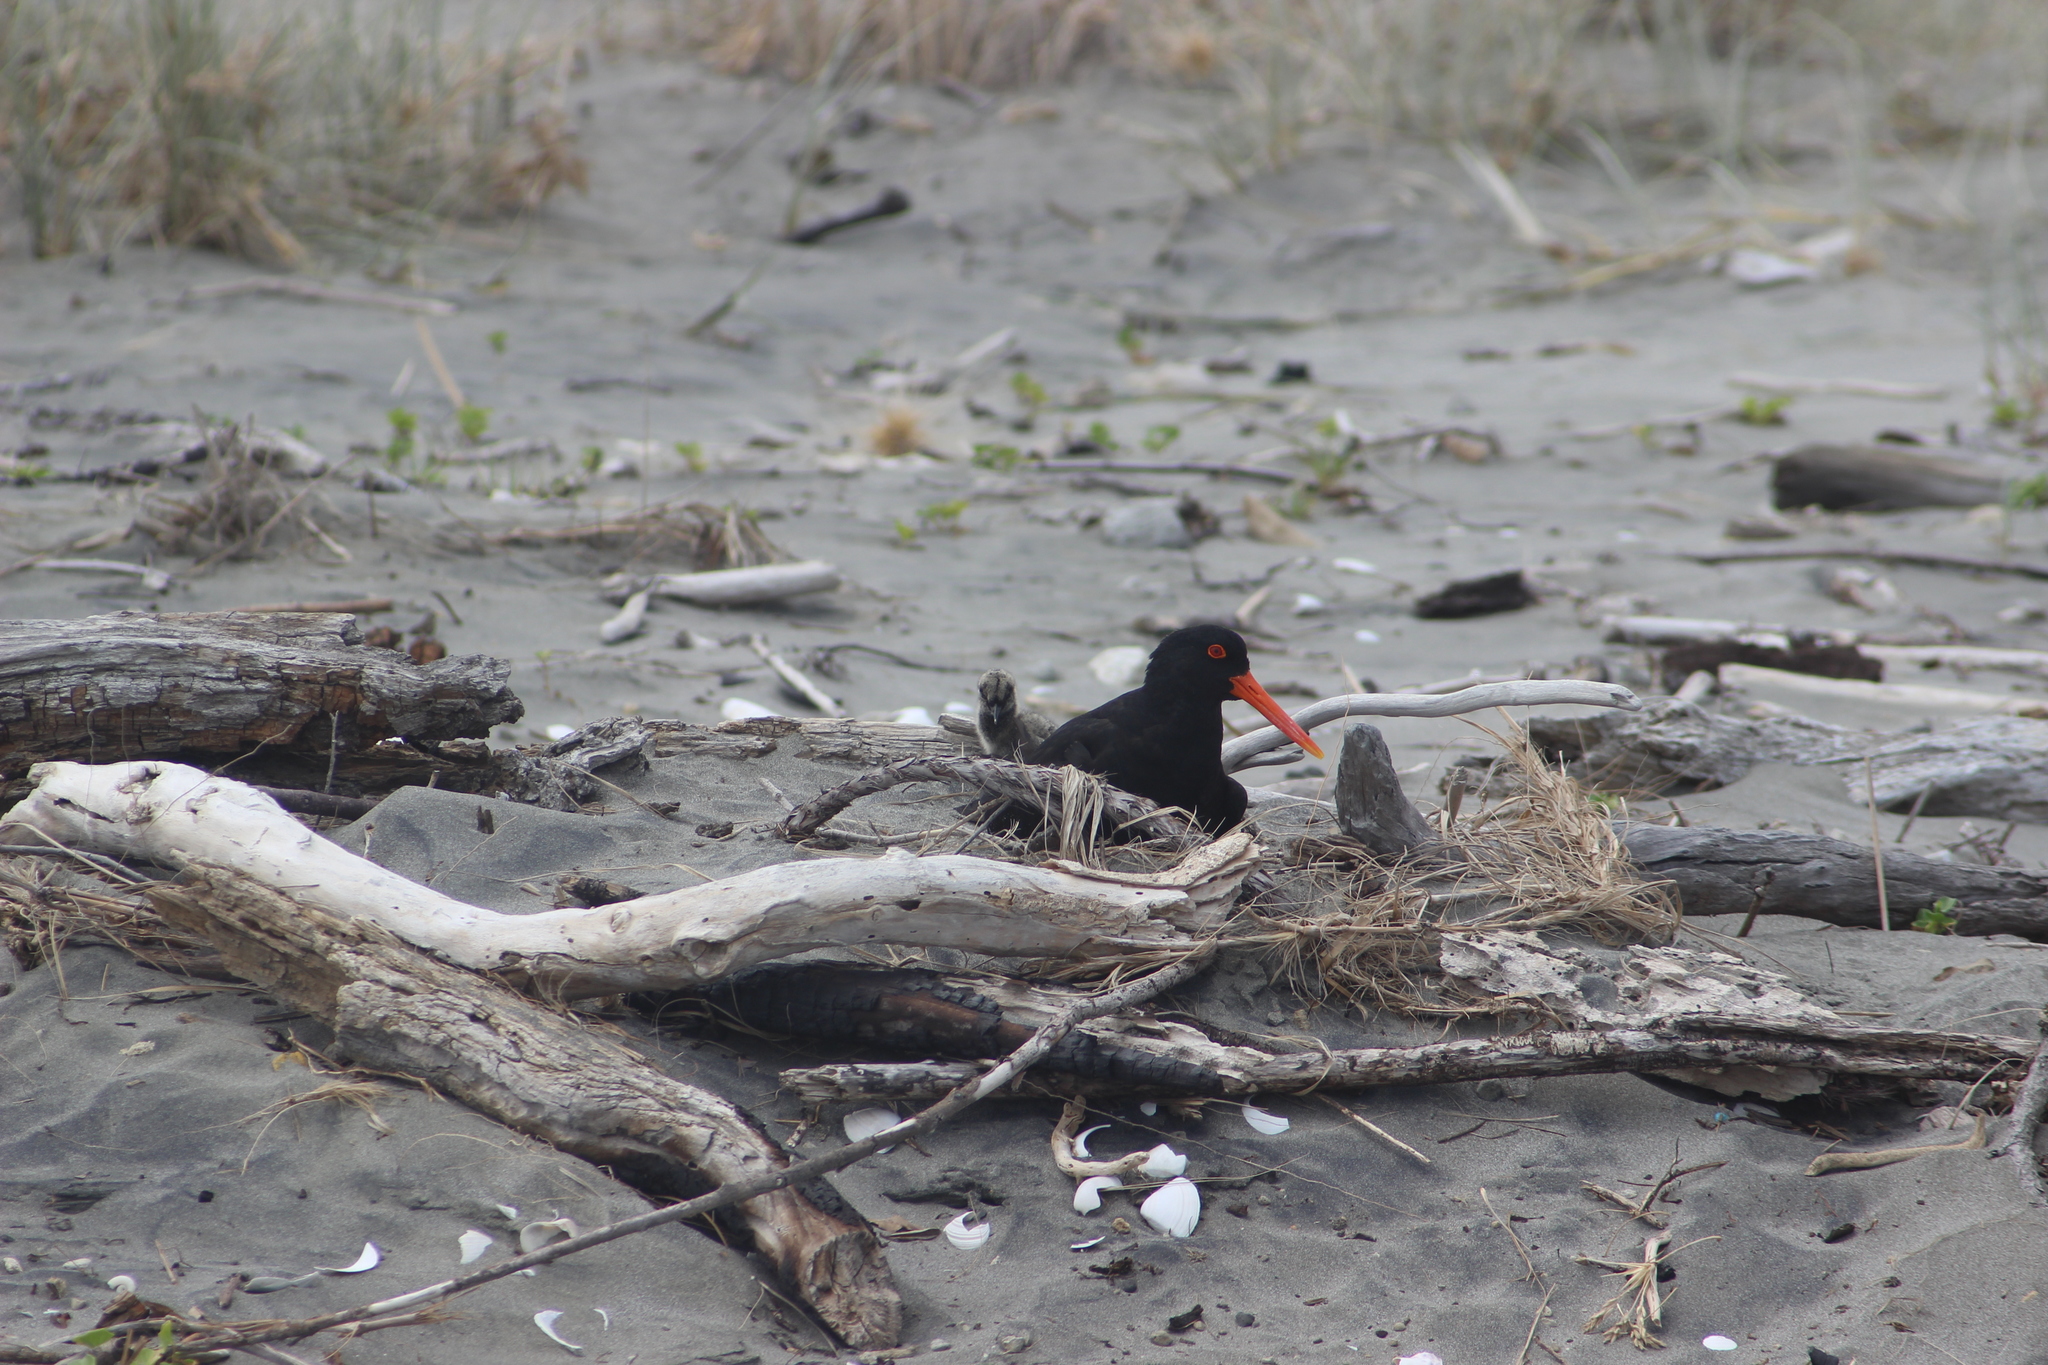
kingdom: Animalia
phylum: Chordata
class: Aves
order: Charadriiformes
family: Haematopodidae
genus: Haematopus
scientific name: Haematopus unicolor
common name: Variable oystercatcher
